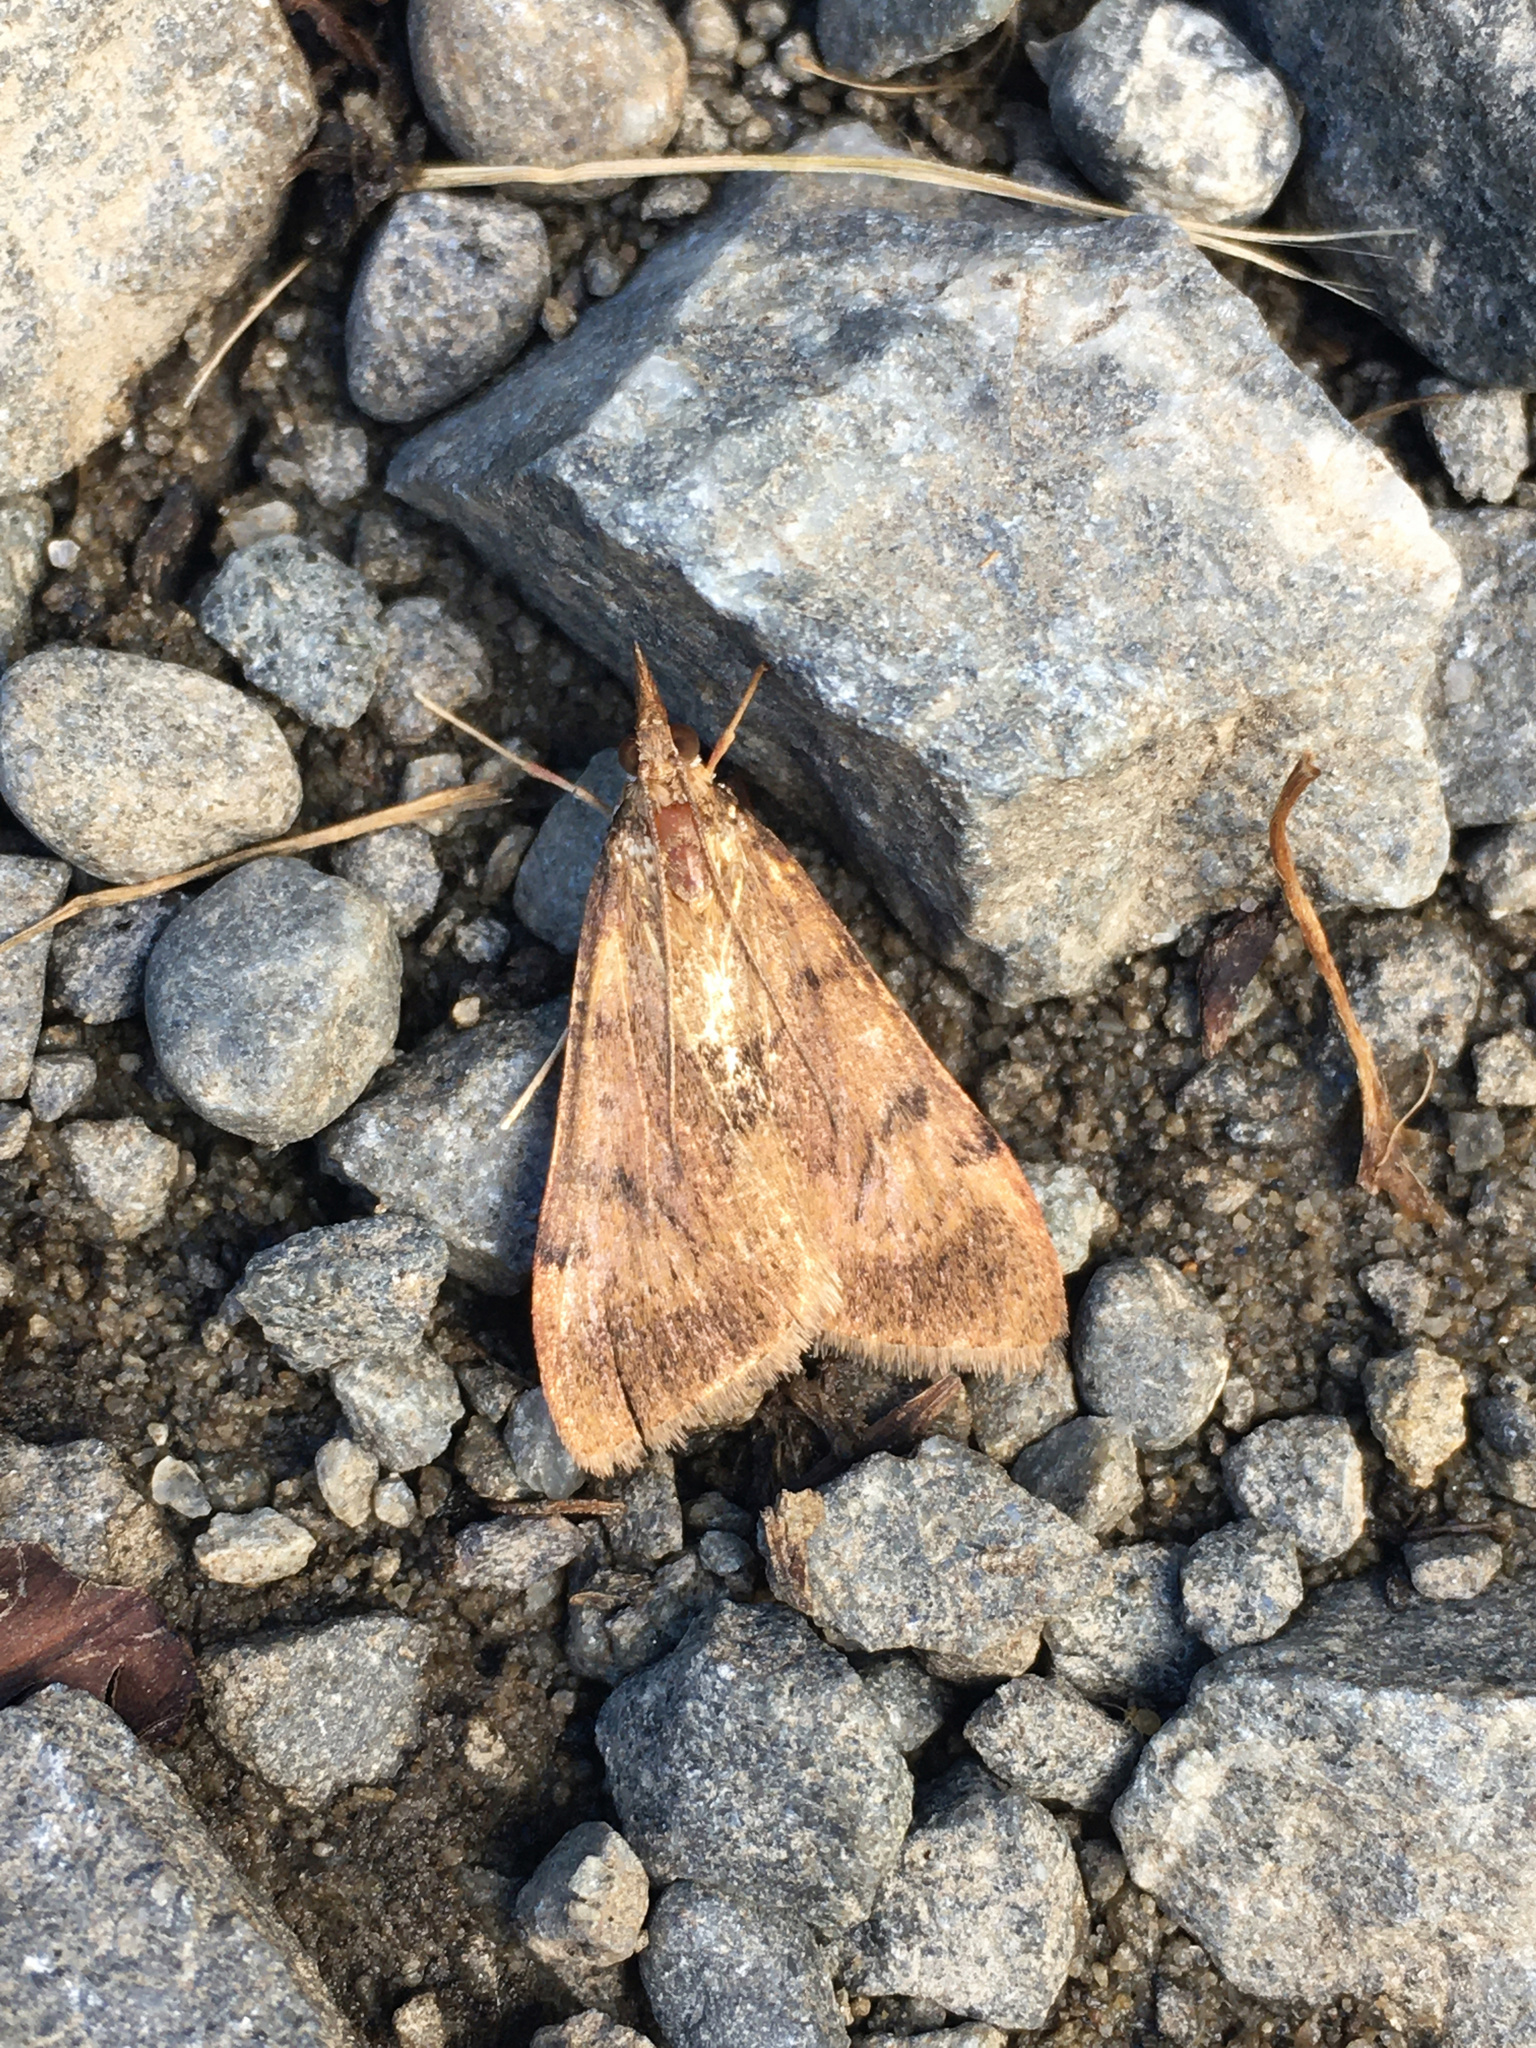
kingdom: Animalia
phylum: Arthropoda
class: Insecta
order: Lepidoptera
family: Crambidae
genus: Uresiphita
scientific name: Uresiphita
